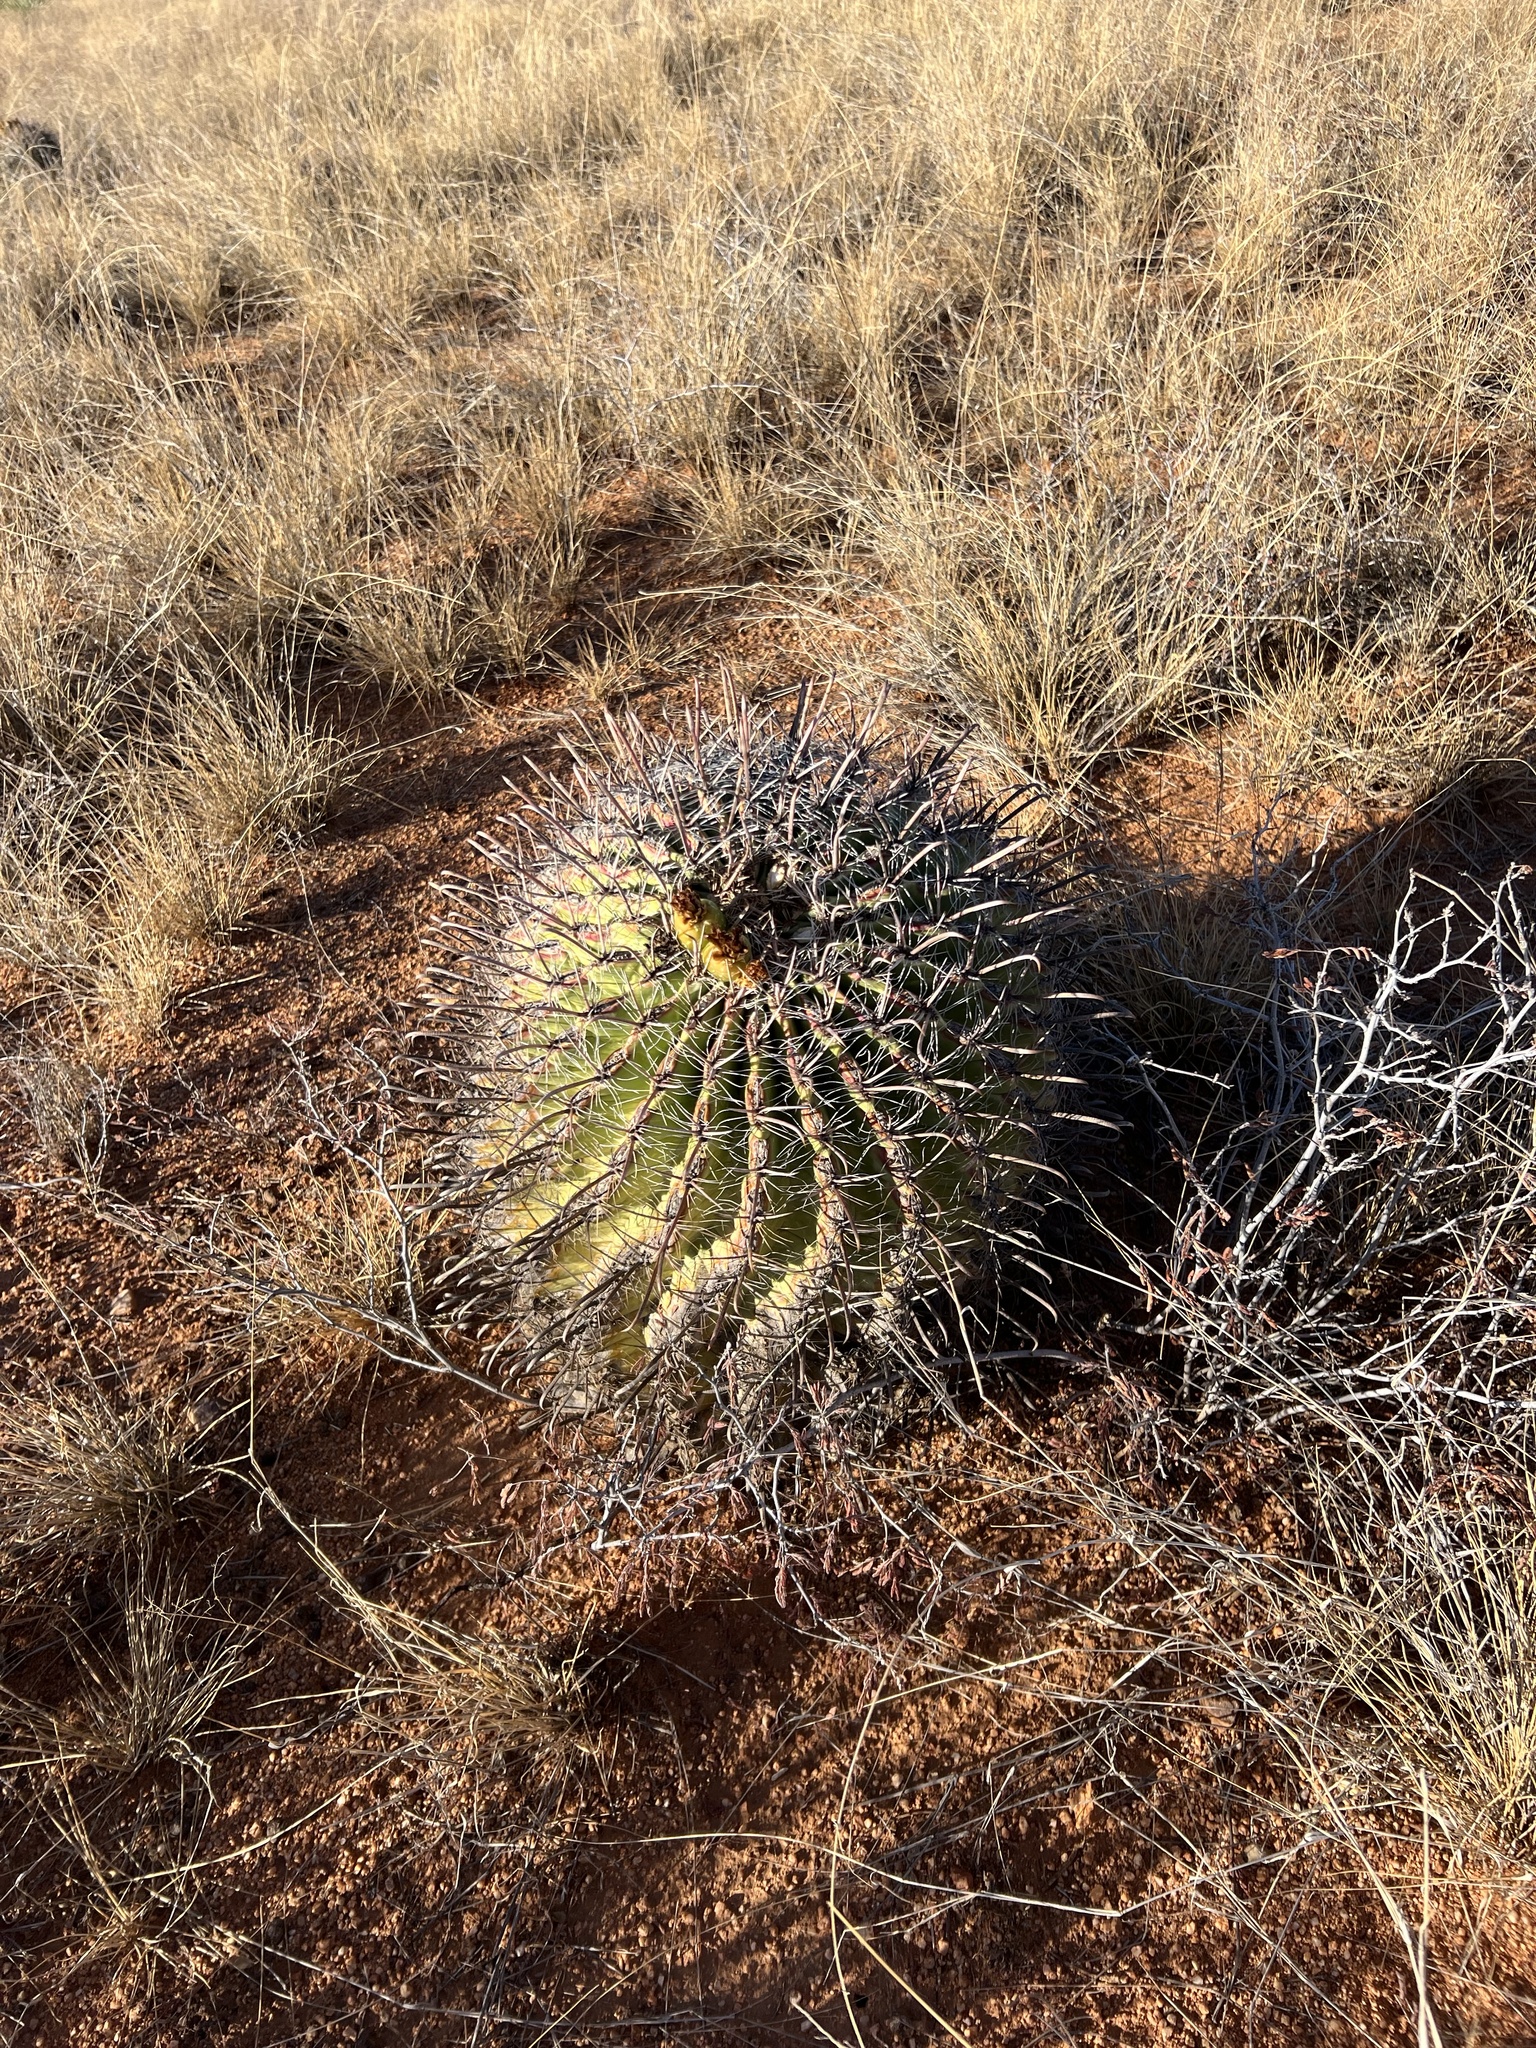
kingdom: Plantae
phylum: Tracheophyta
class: Magnoliopsida
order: Caryophyllales
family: Cactaceae
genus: Ferocactus
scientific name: Ferocactus wislizeni
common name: Candy barrel cactus
